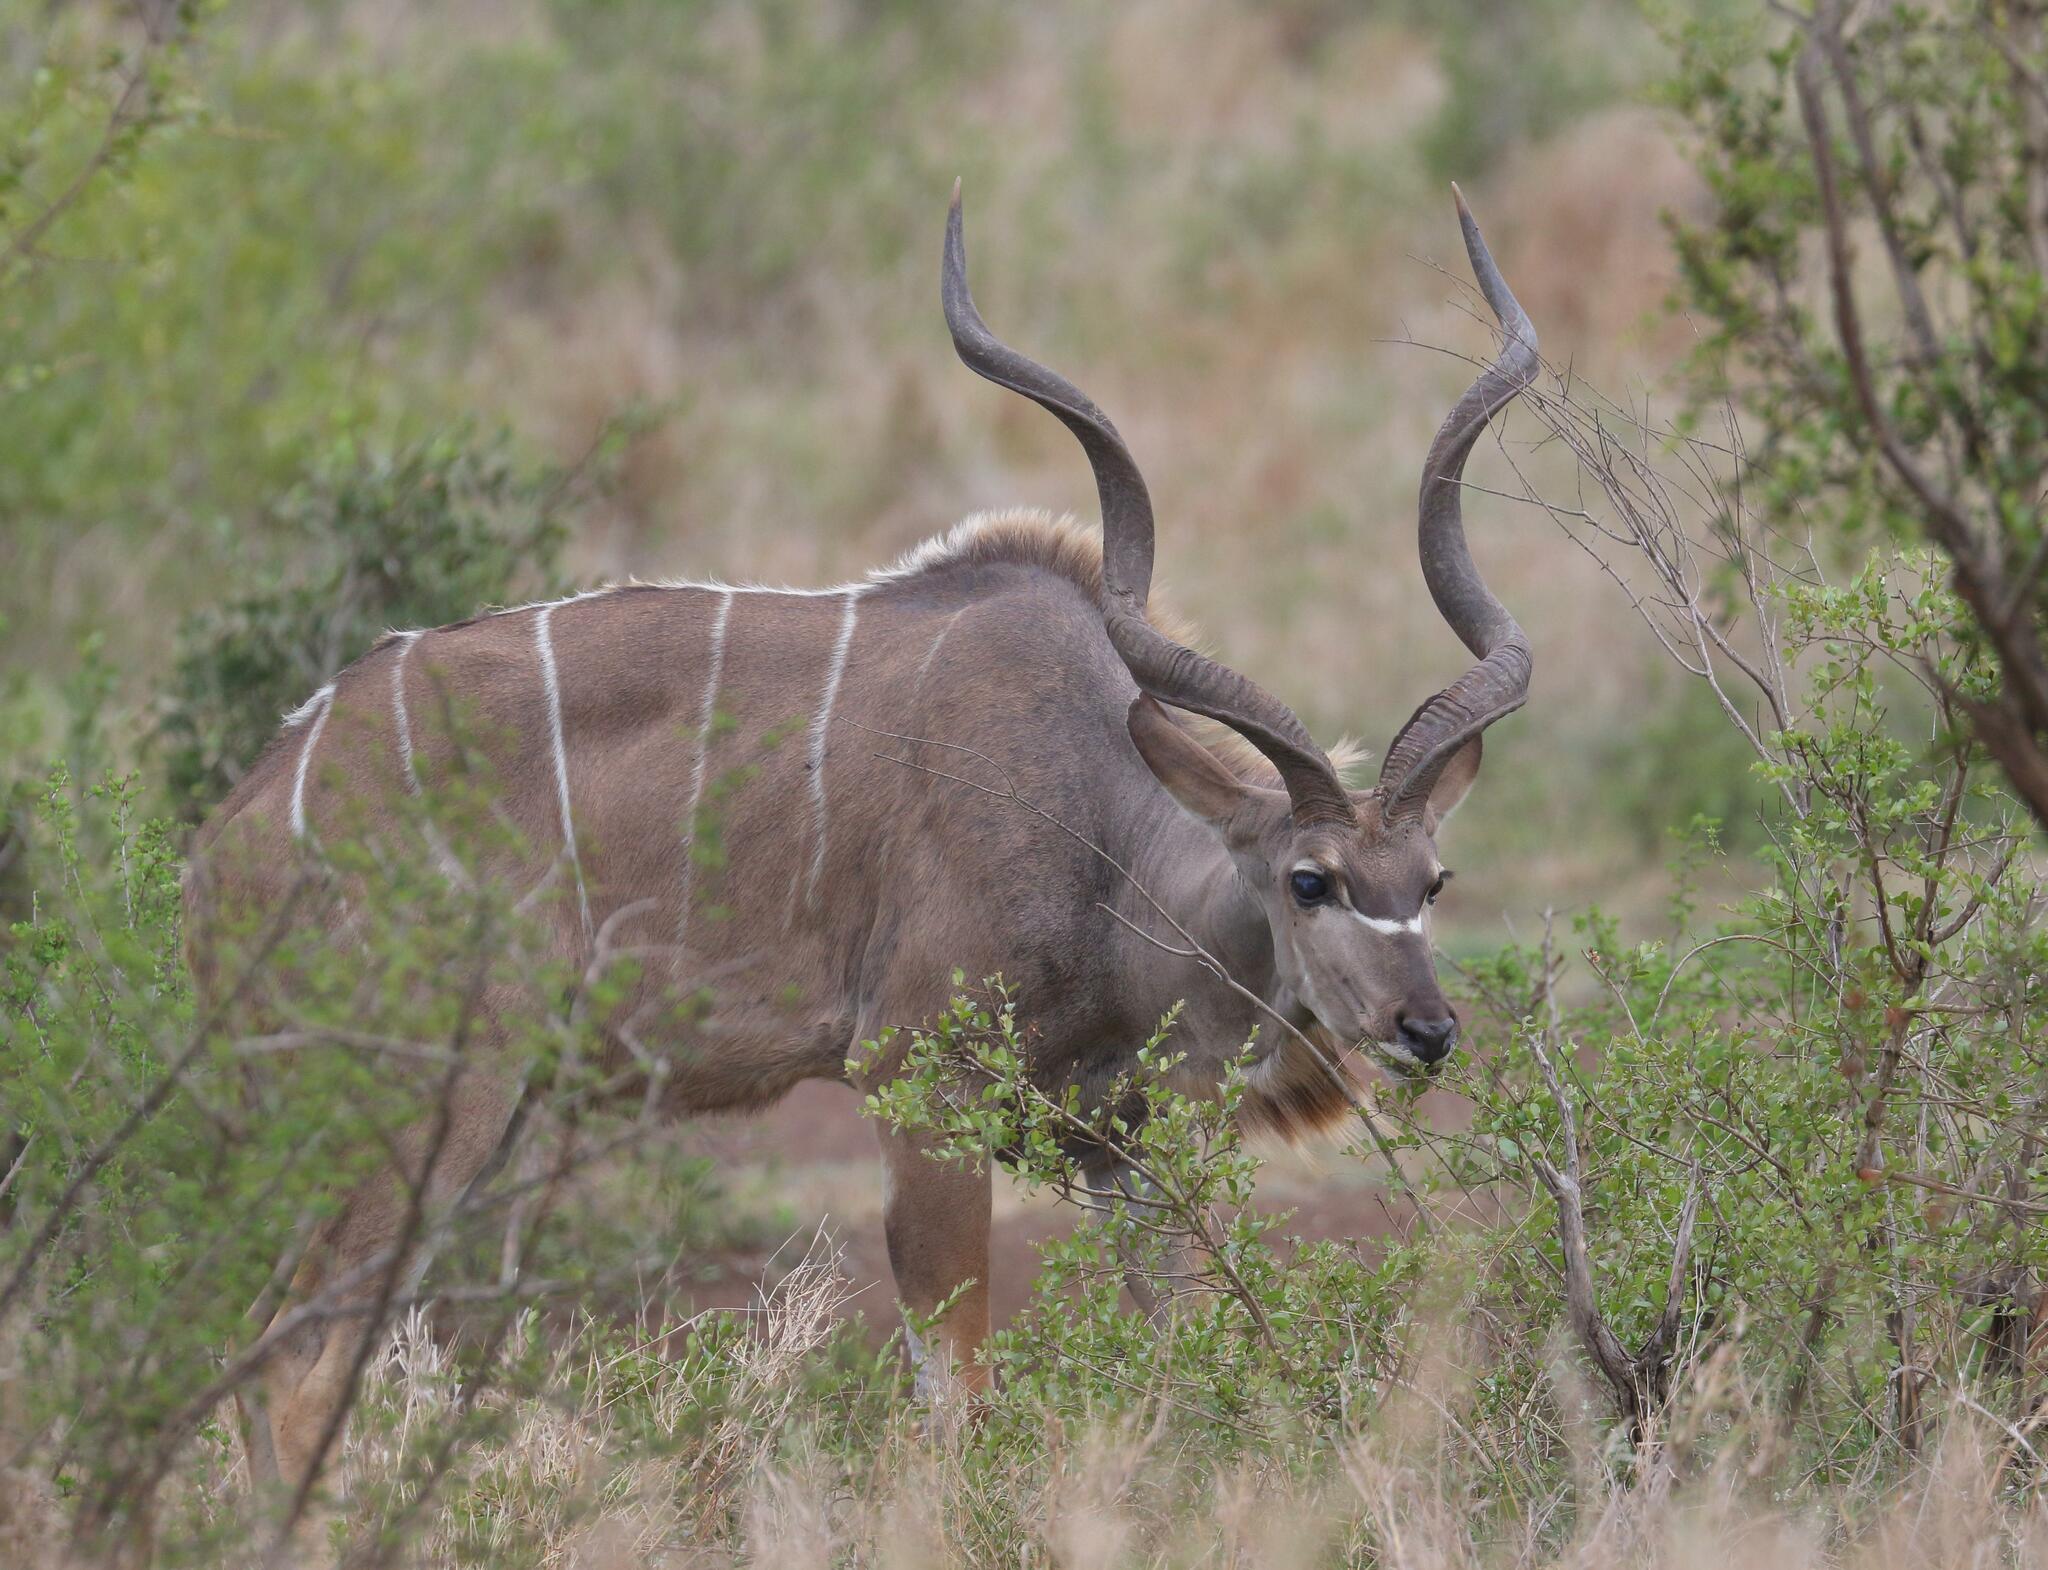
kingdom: Animalia
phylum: Chordata
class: Mammalia
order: Artiodactyla
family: Bovidae
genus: Tragelaphus
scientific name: Tragelaphus strepsiceros
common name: Greater kudu
